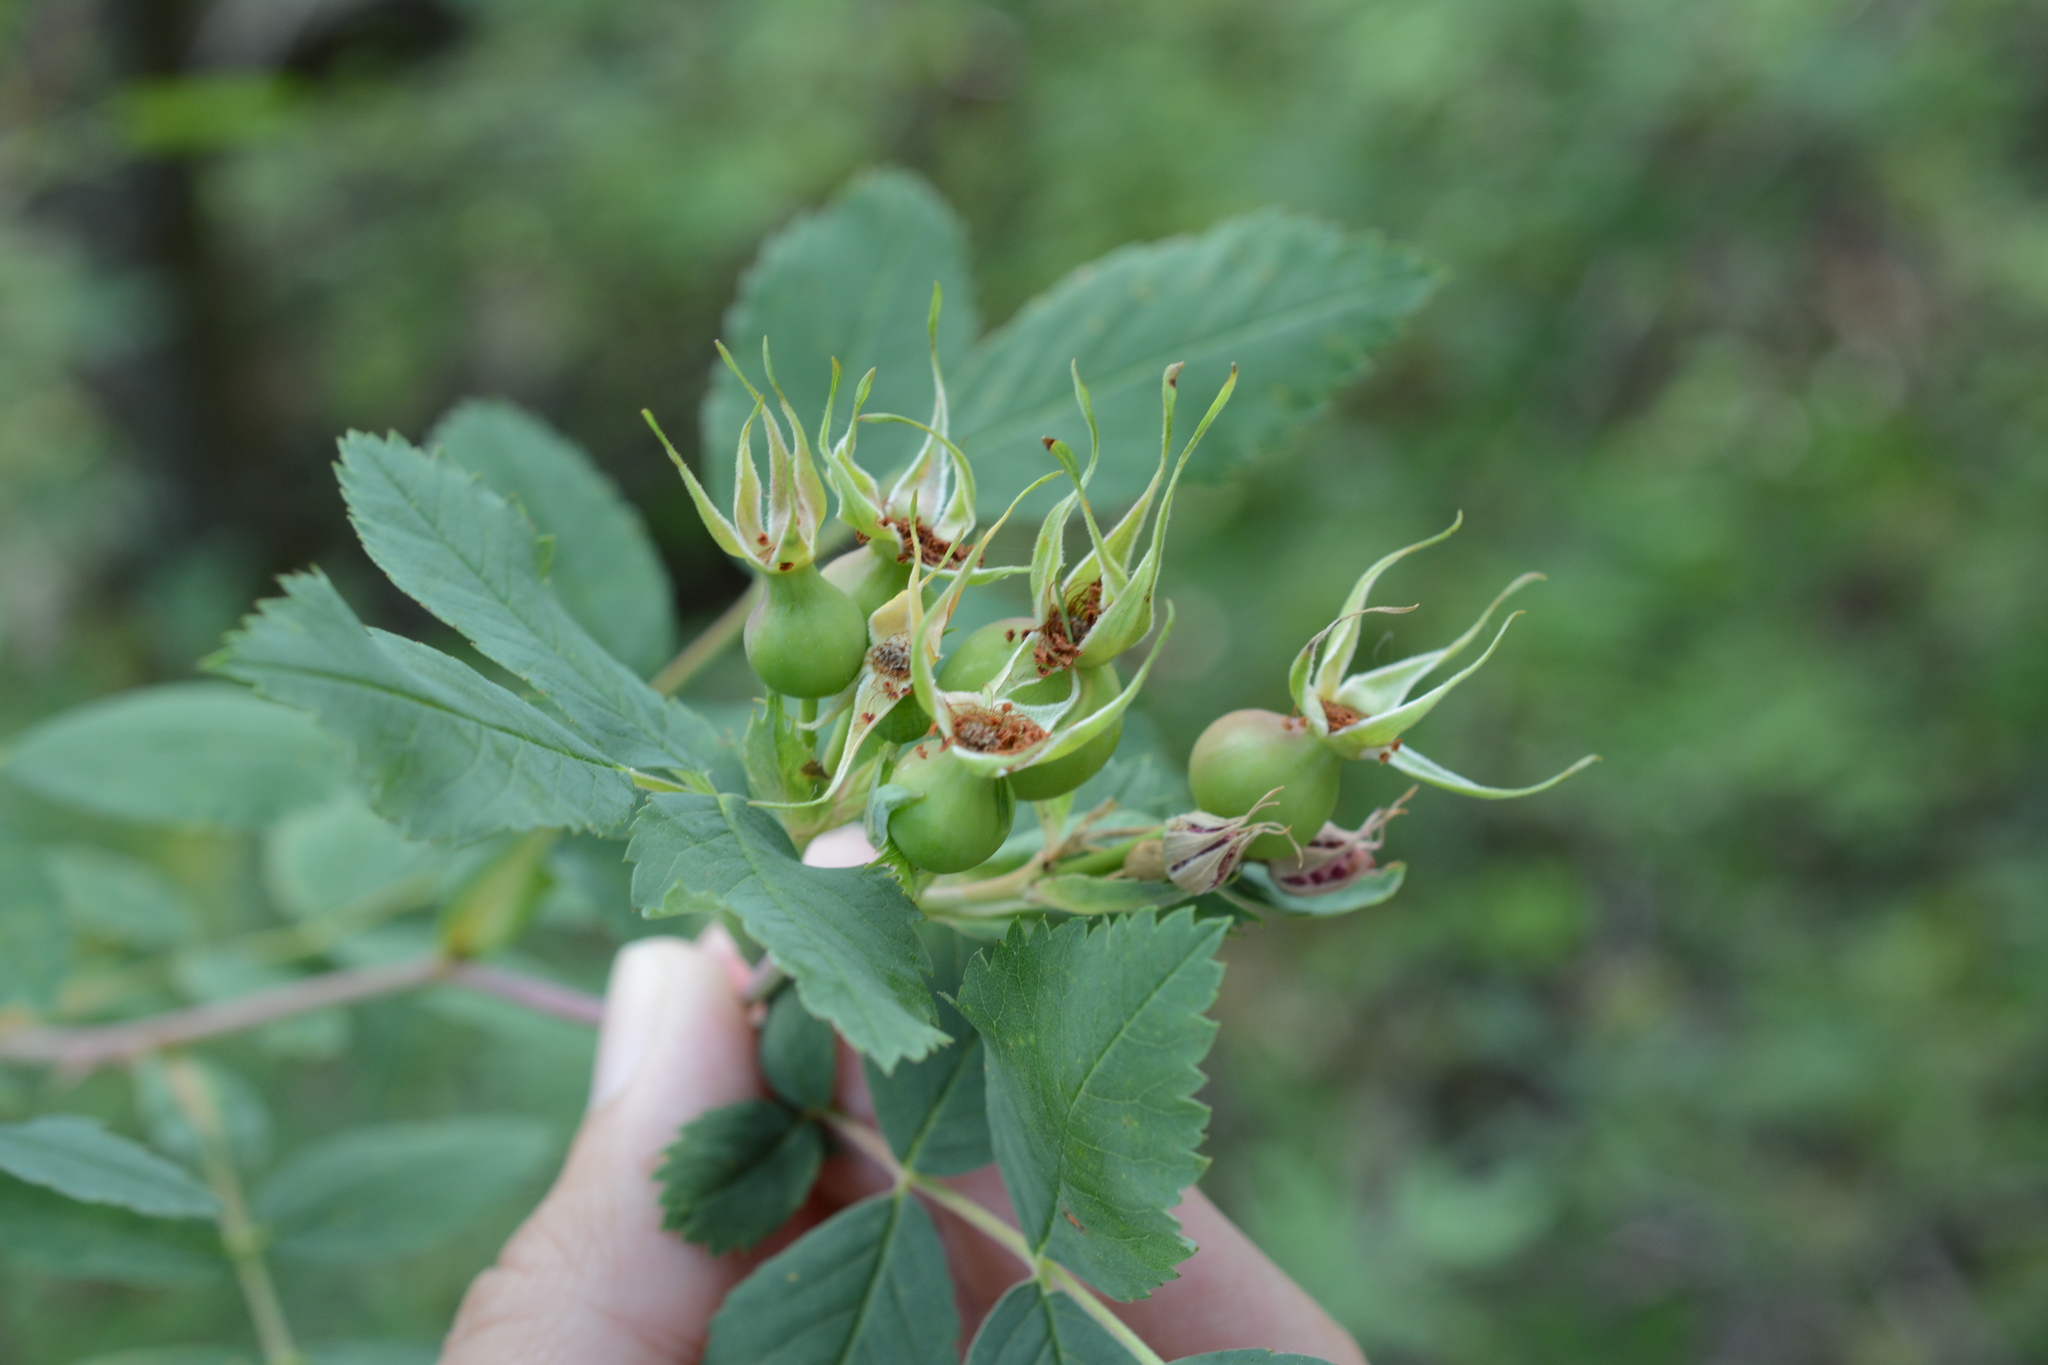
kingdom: Plantae
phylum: Tracheophyta
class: Magnoliopsida
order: Rosales
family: Rosaceae
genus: Rosa
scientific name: Rosa woodsii
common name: Woods's rose
